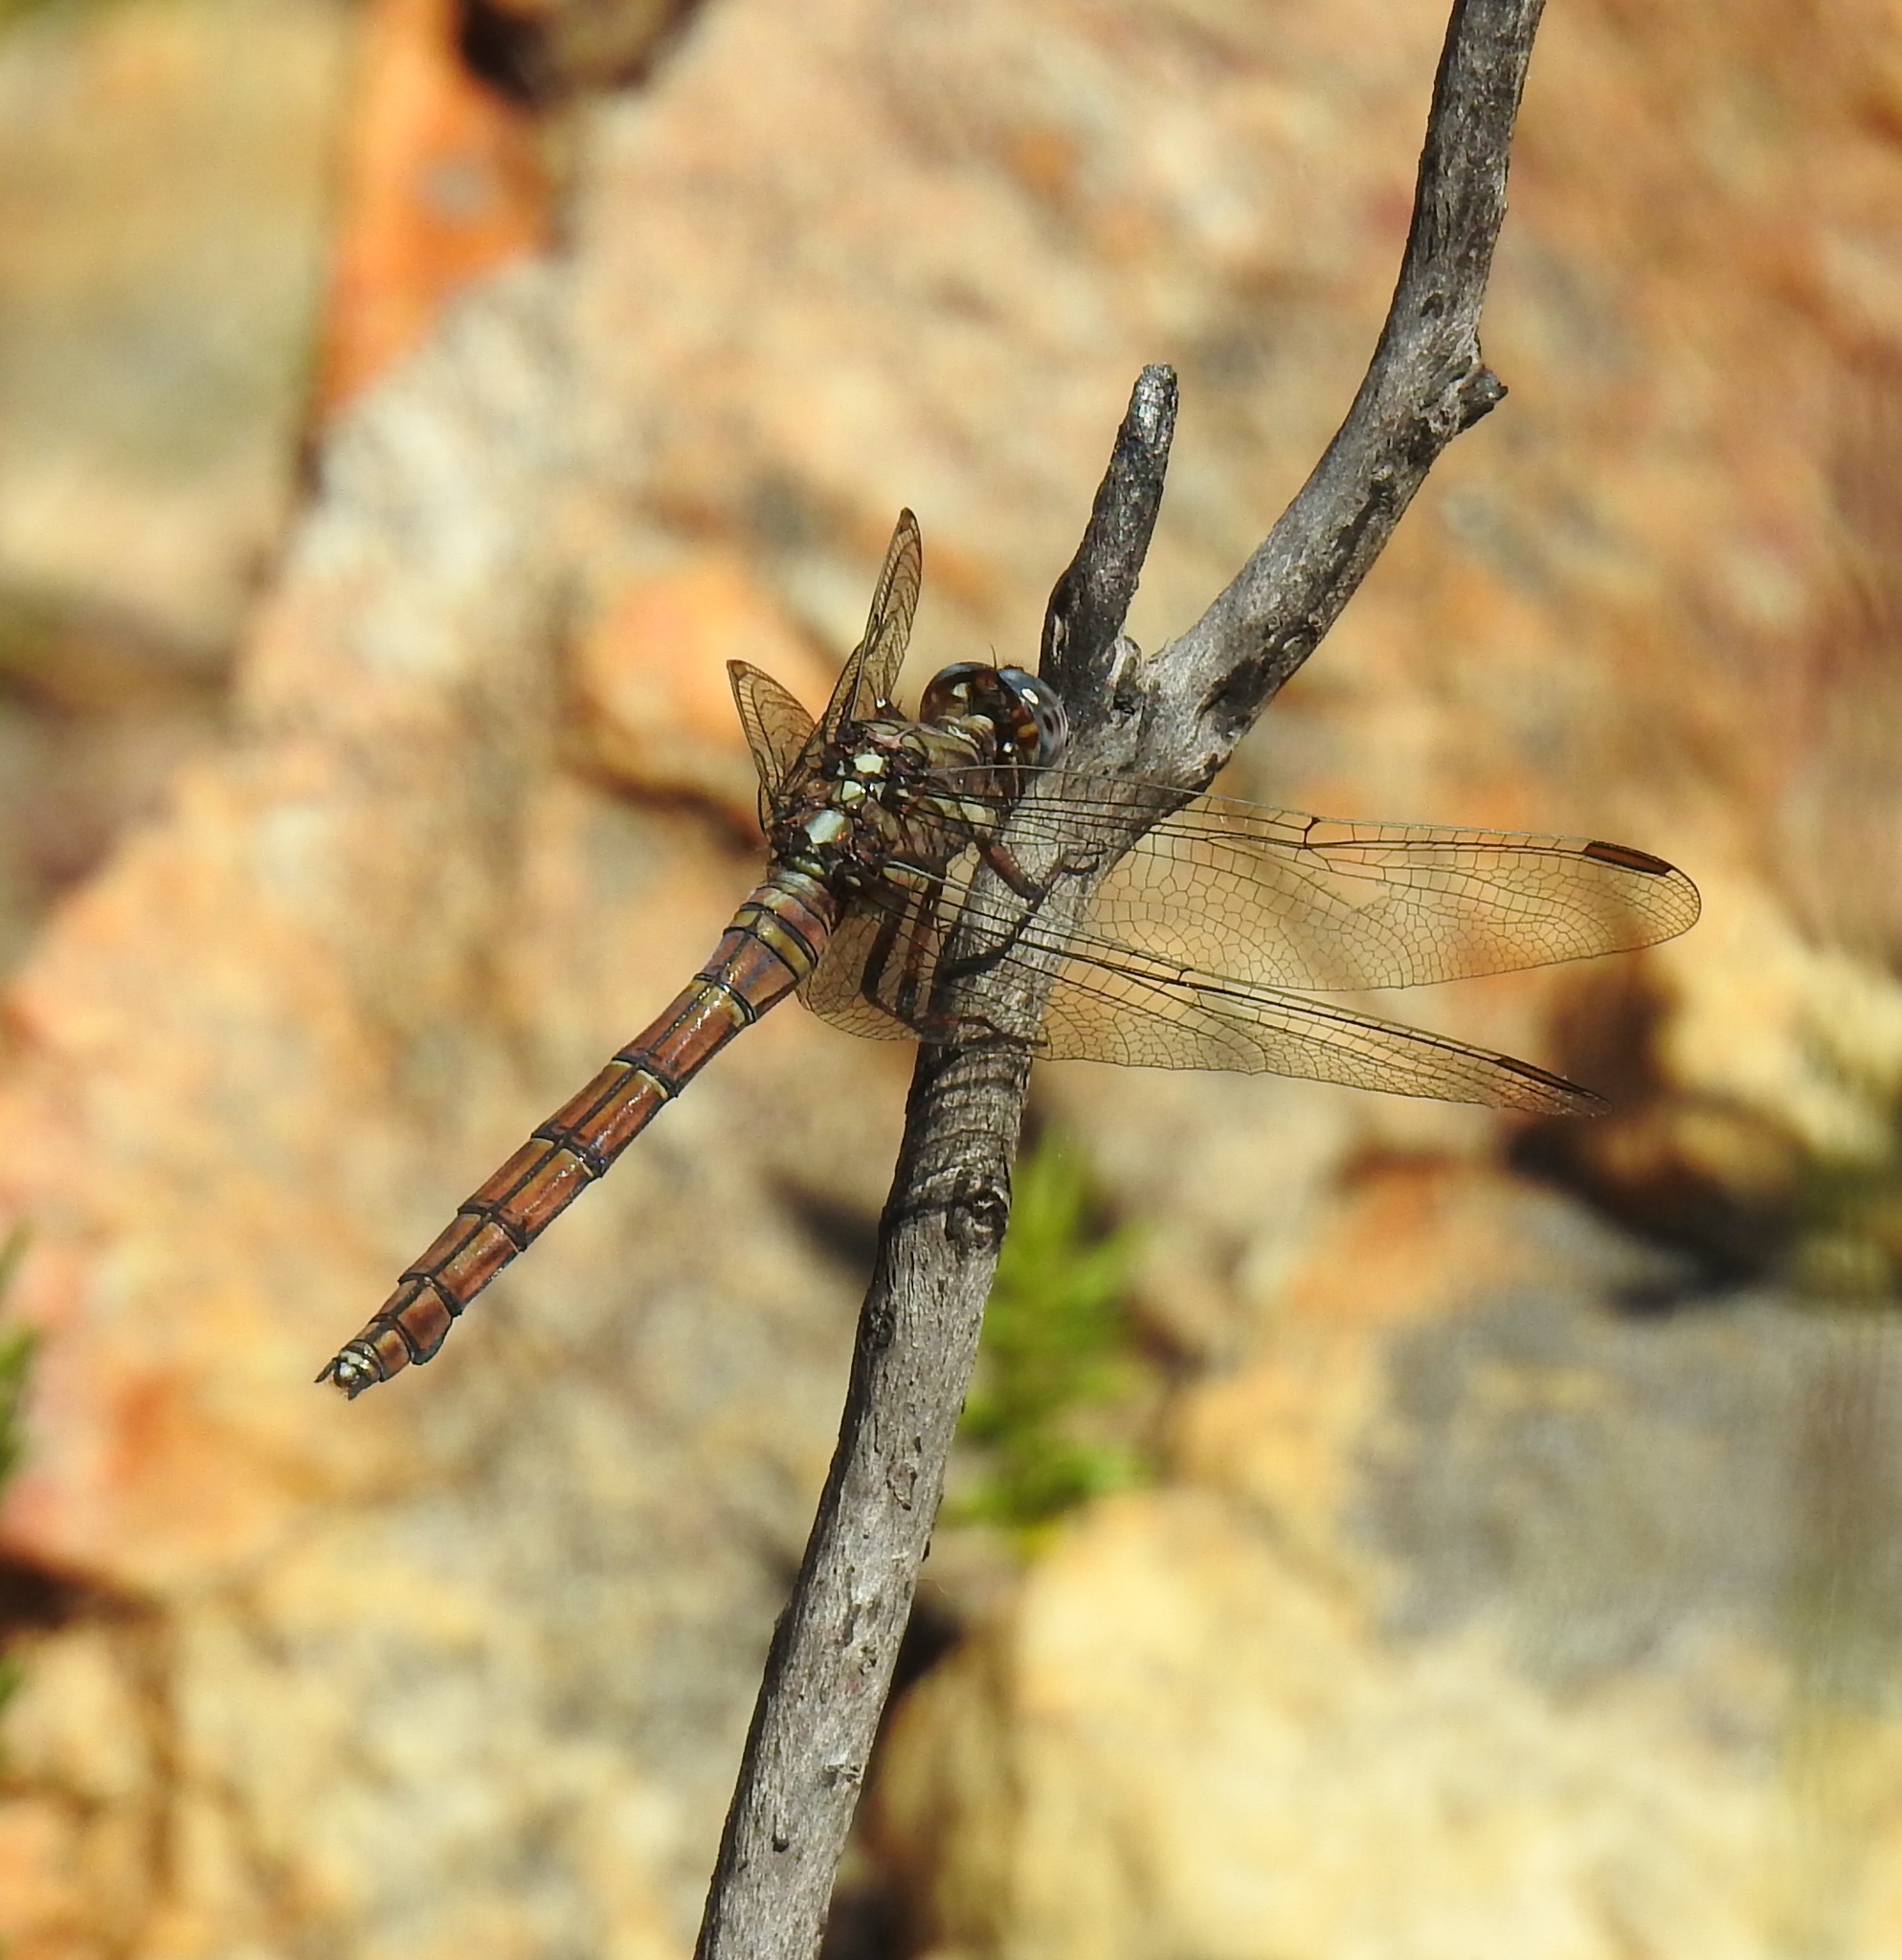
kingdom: Animalia
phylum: Arthropoda
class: Insecta
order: Odonata
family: Libellulidae
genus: Orthetrum
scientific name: Orthetrum julia
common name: Julia skimmer
